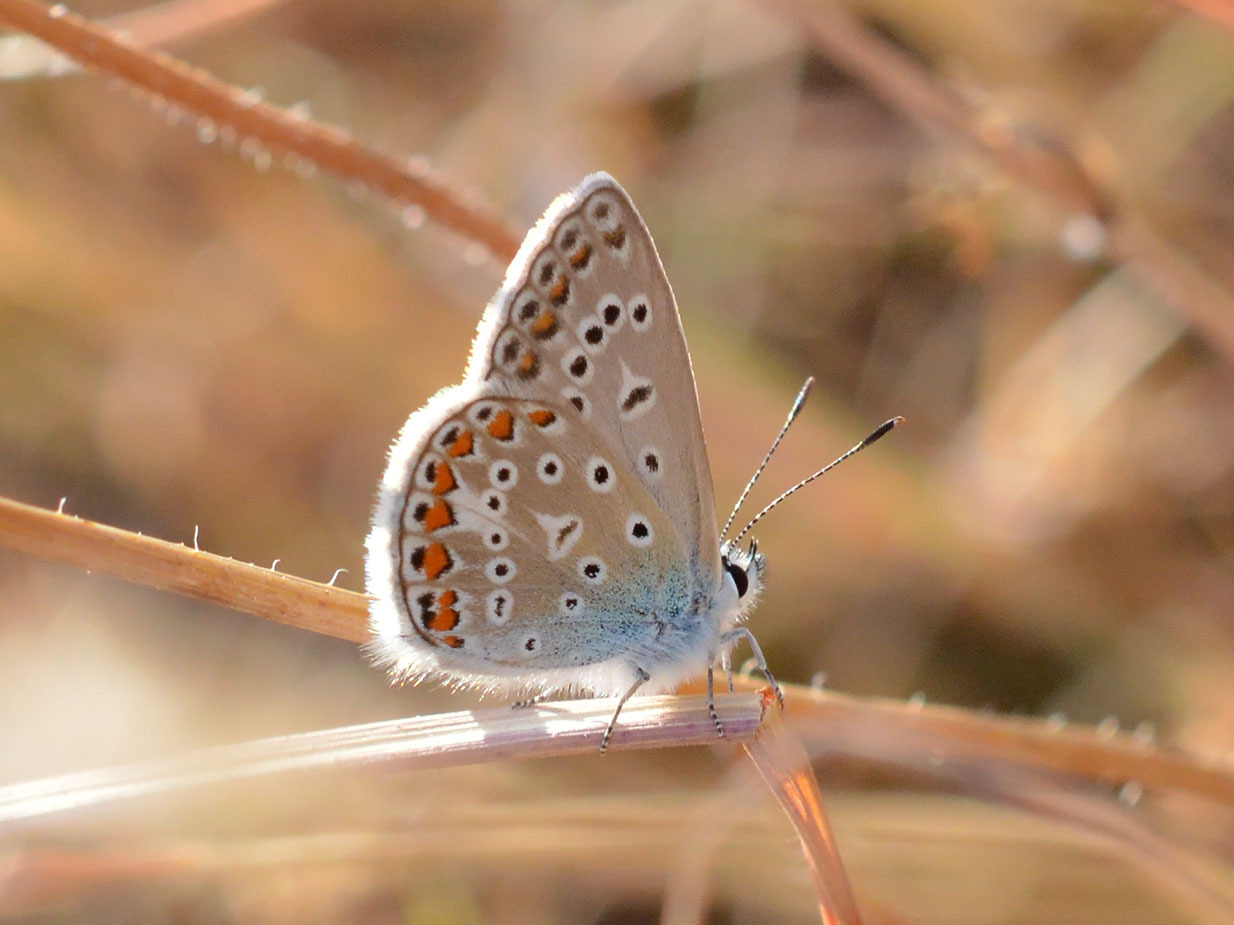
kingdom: Animalia
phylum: Arthropoda
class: Insecta
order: Lepidoptera
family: Lycaenidae
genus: Polyommatus
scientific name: Polyommatus icarus
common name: Common blue
